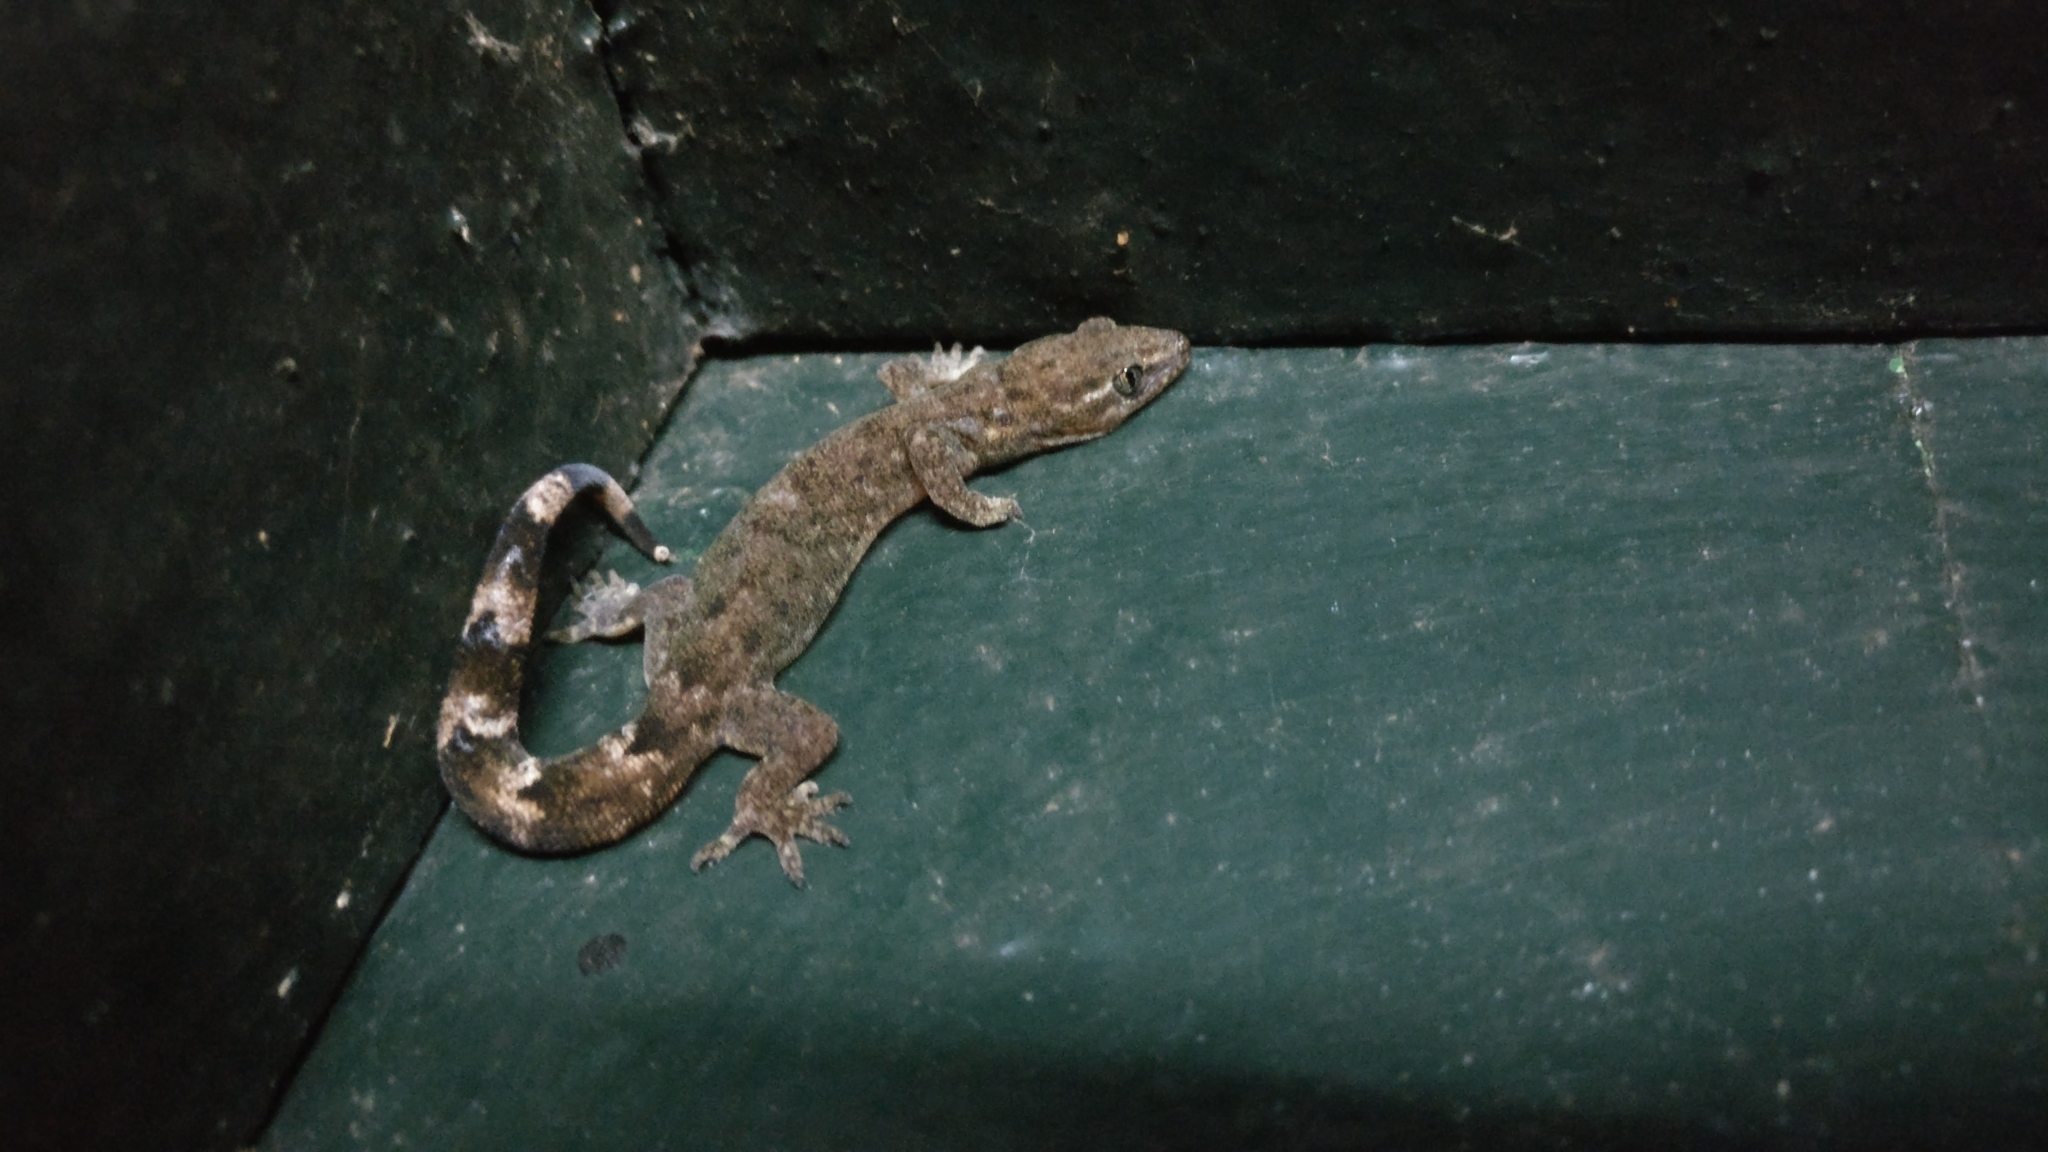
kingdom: Animalia
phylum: Chordata
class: Squamata
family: Gekkonidae
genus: Dravidogecko
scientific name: Dravidogecko tholpalli
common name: Kodaikanal dravidogecko
